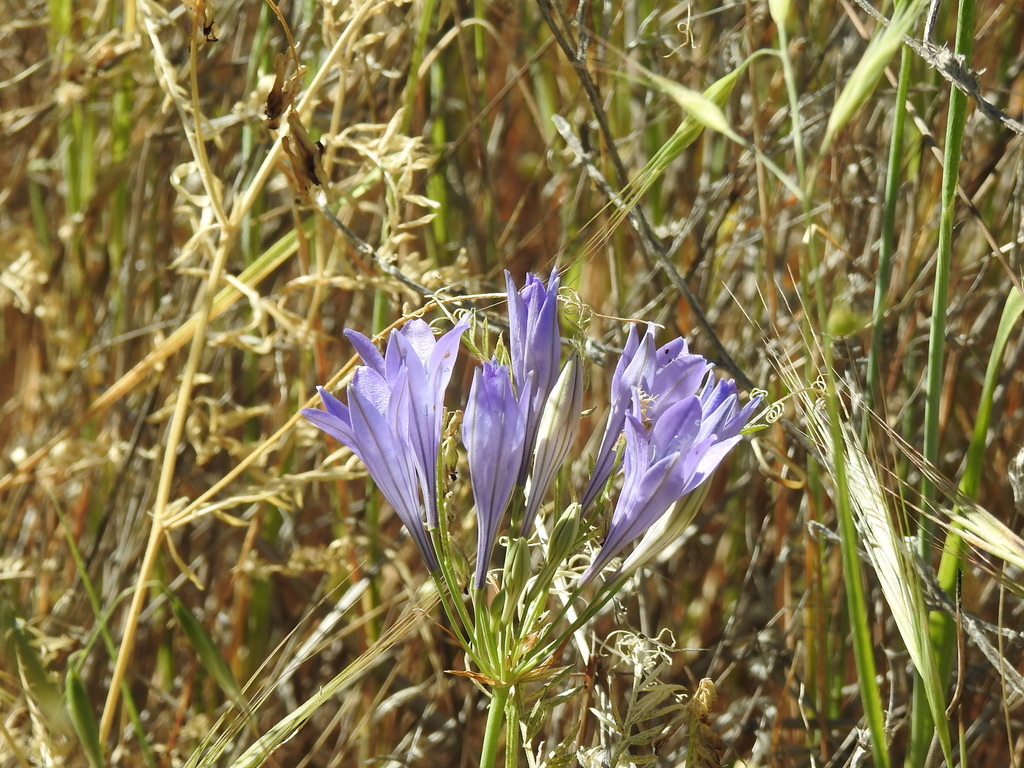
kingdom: Plantae
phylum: Tracheophyta
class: Liliopsida
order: Asparagales
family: Asparagaceae
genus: Triteleia
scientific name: Triteleia laxa
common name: Triplet-lily
